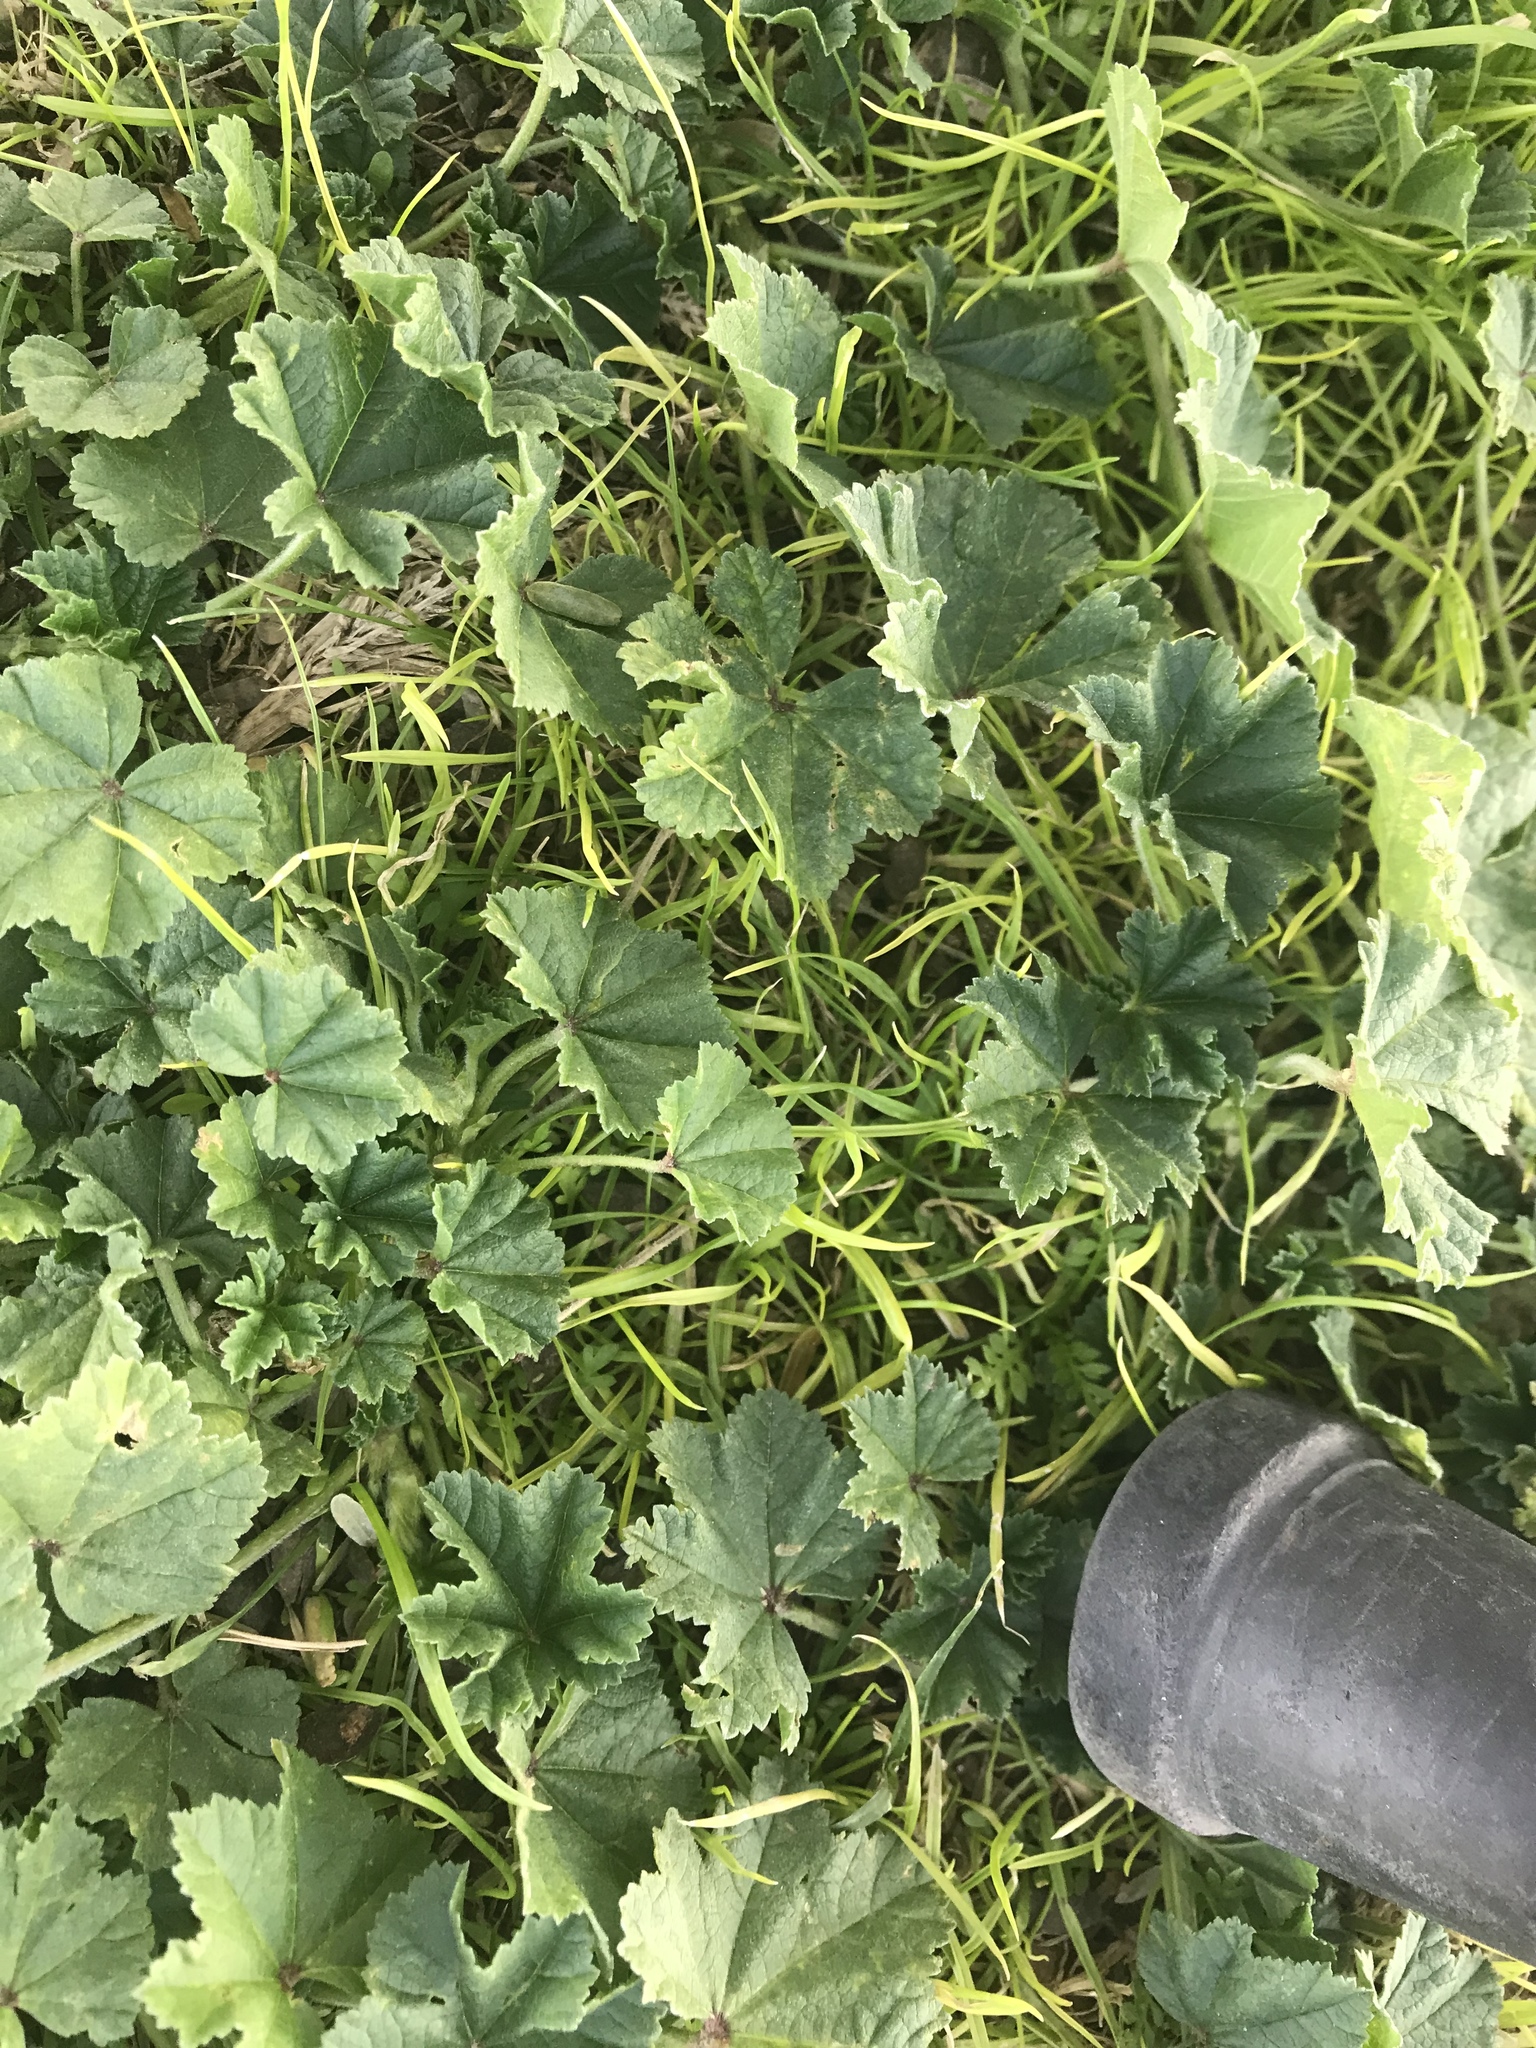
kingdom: Plantae
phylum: Tracheophyta
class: Magnoliopsida
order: Malvales
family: Malvaceae
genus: Malva
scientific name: Malva parviflora
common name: Least mallow
